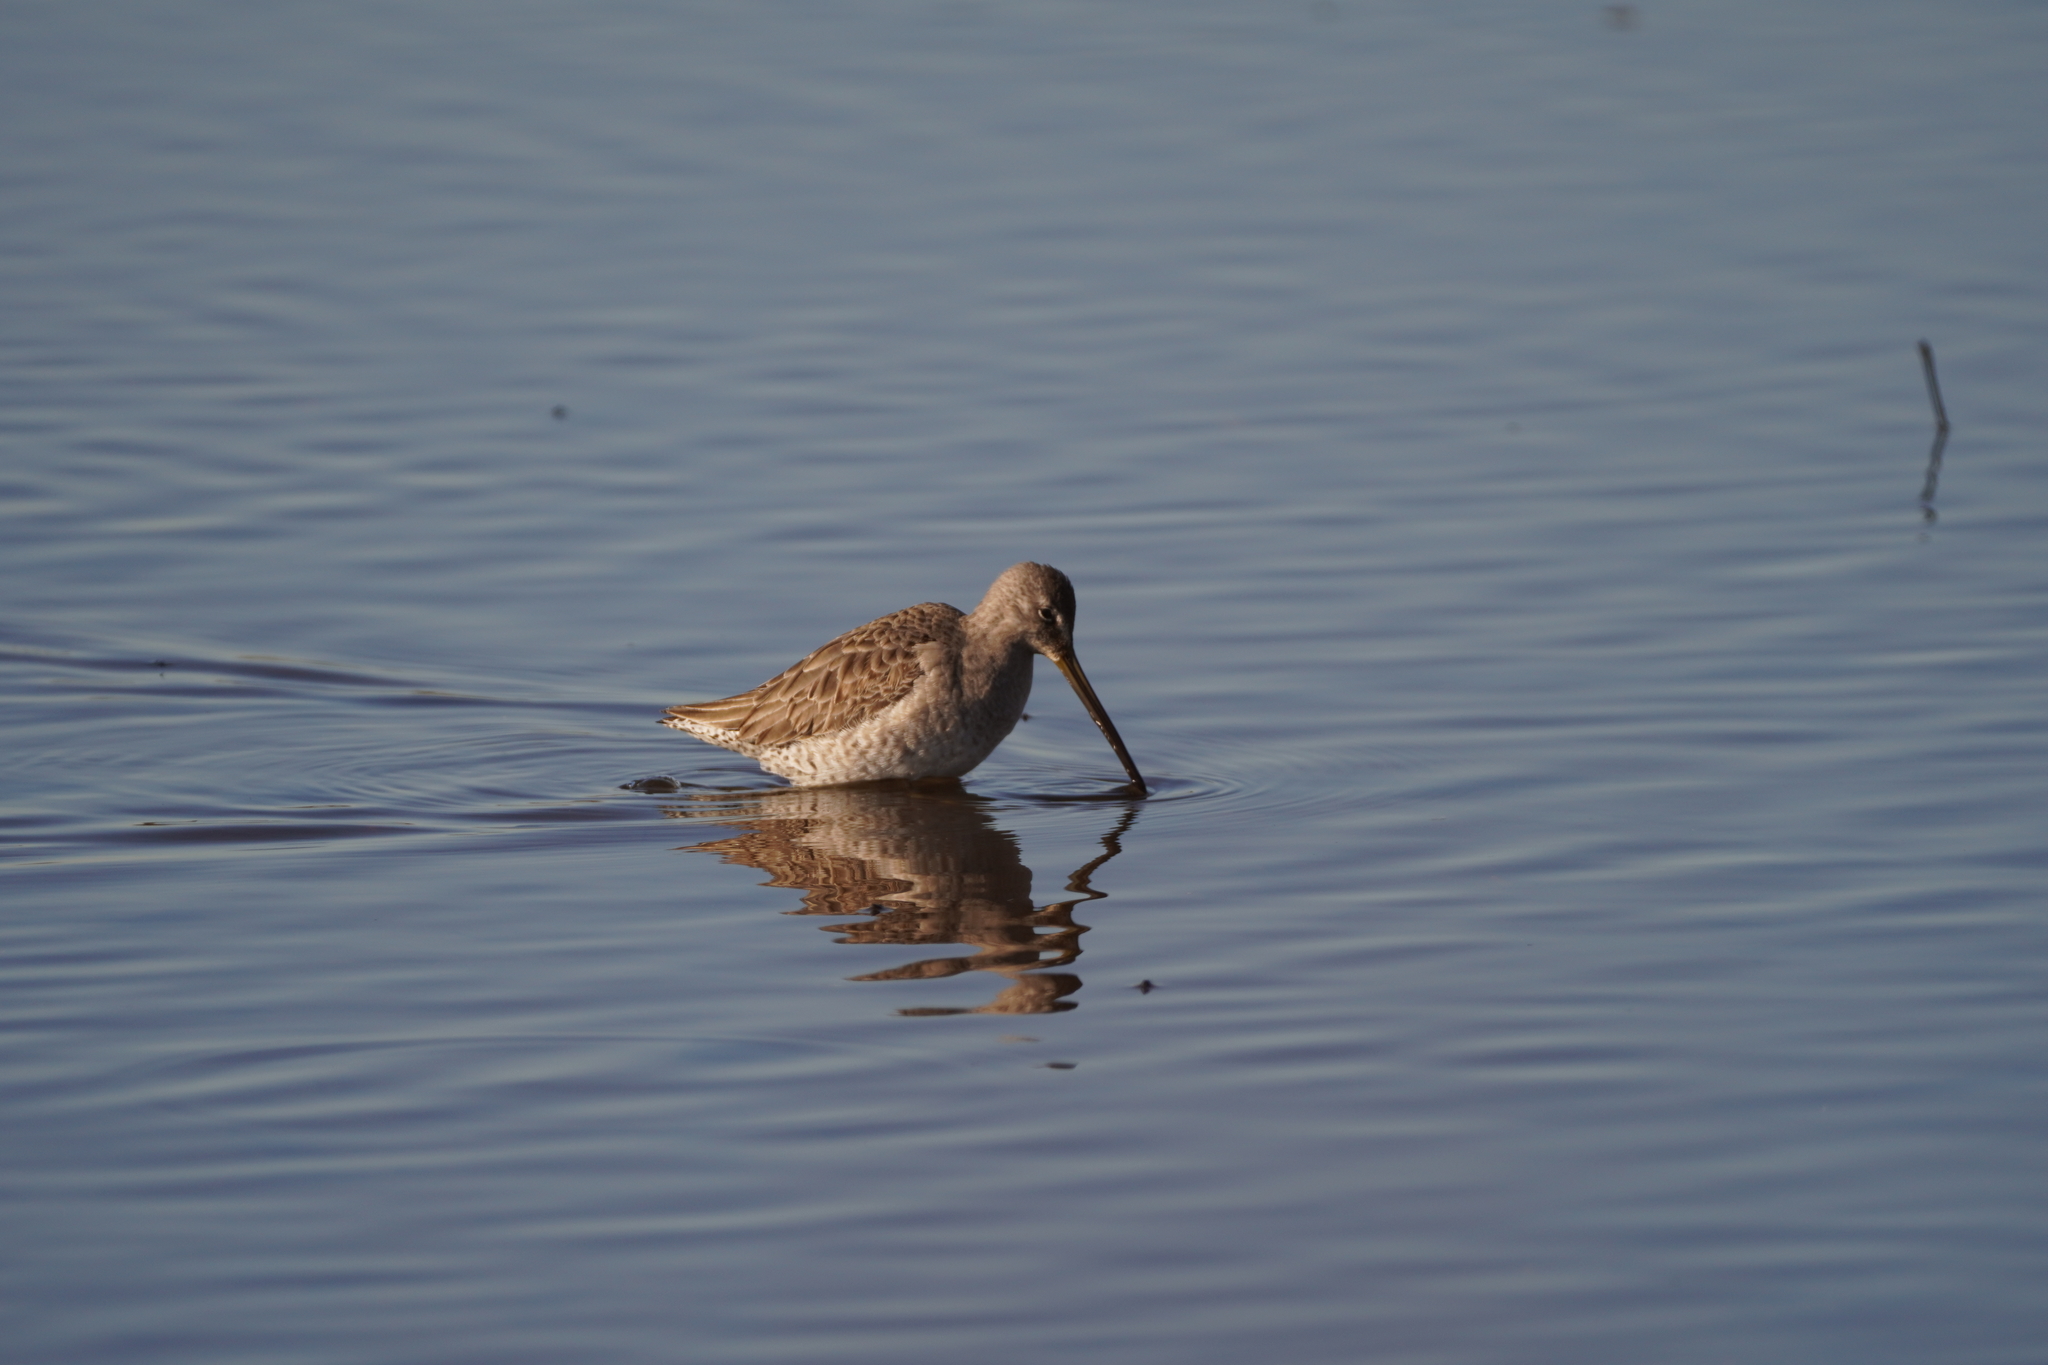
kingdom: Animalia
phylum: Chordata
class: Aves
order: Charadriiformes
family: Scolopacidae
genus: Limnodromus
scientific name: Limnodromus scolopaceus
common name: Long-billed dowitcher
